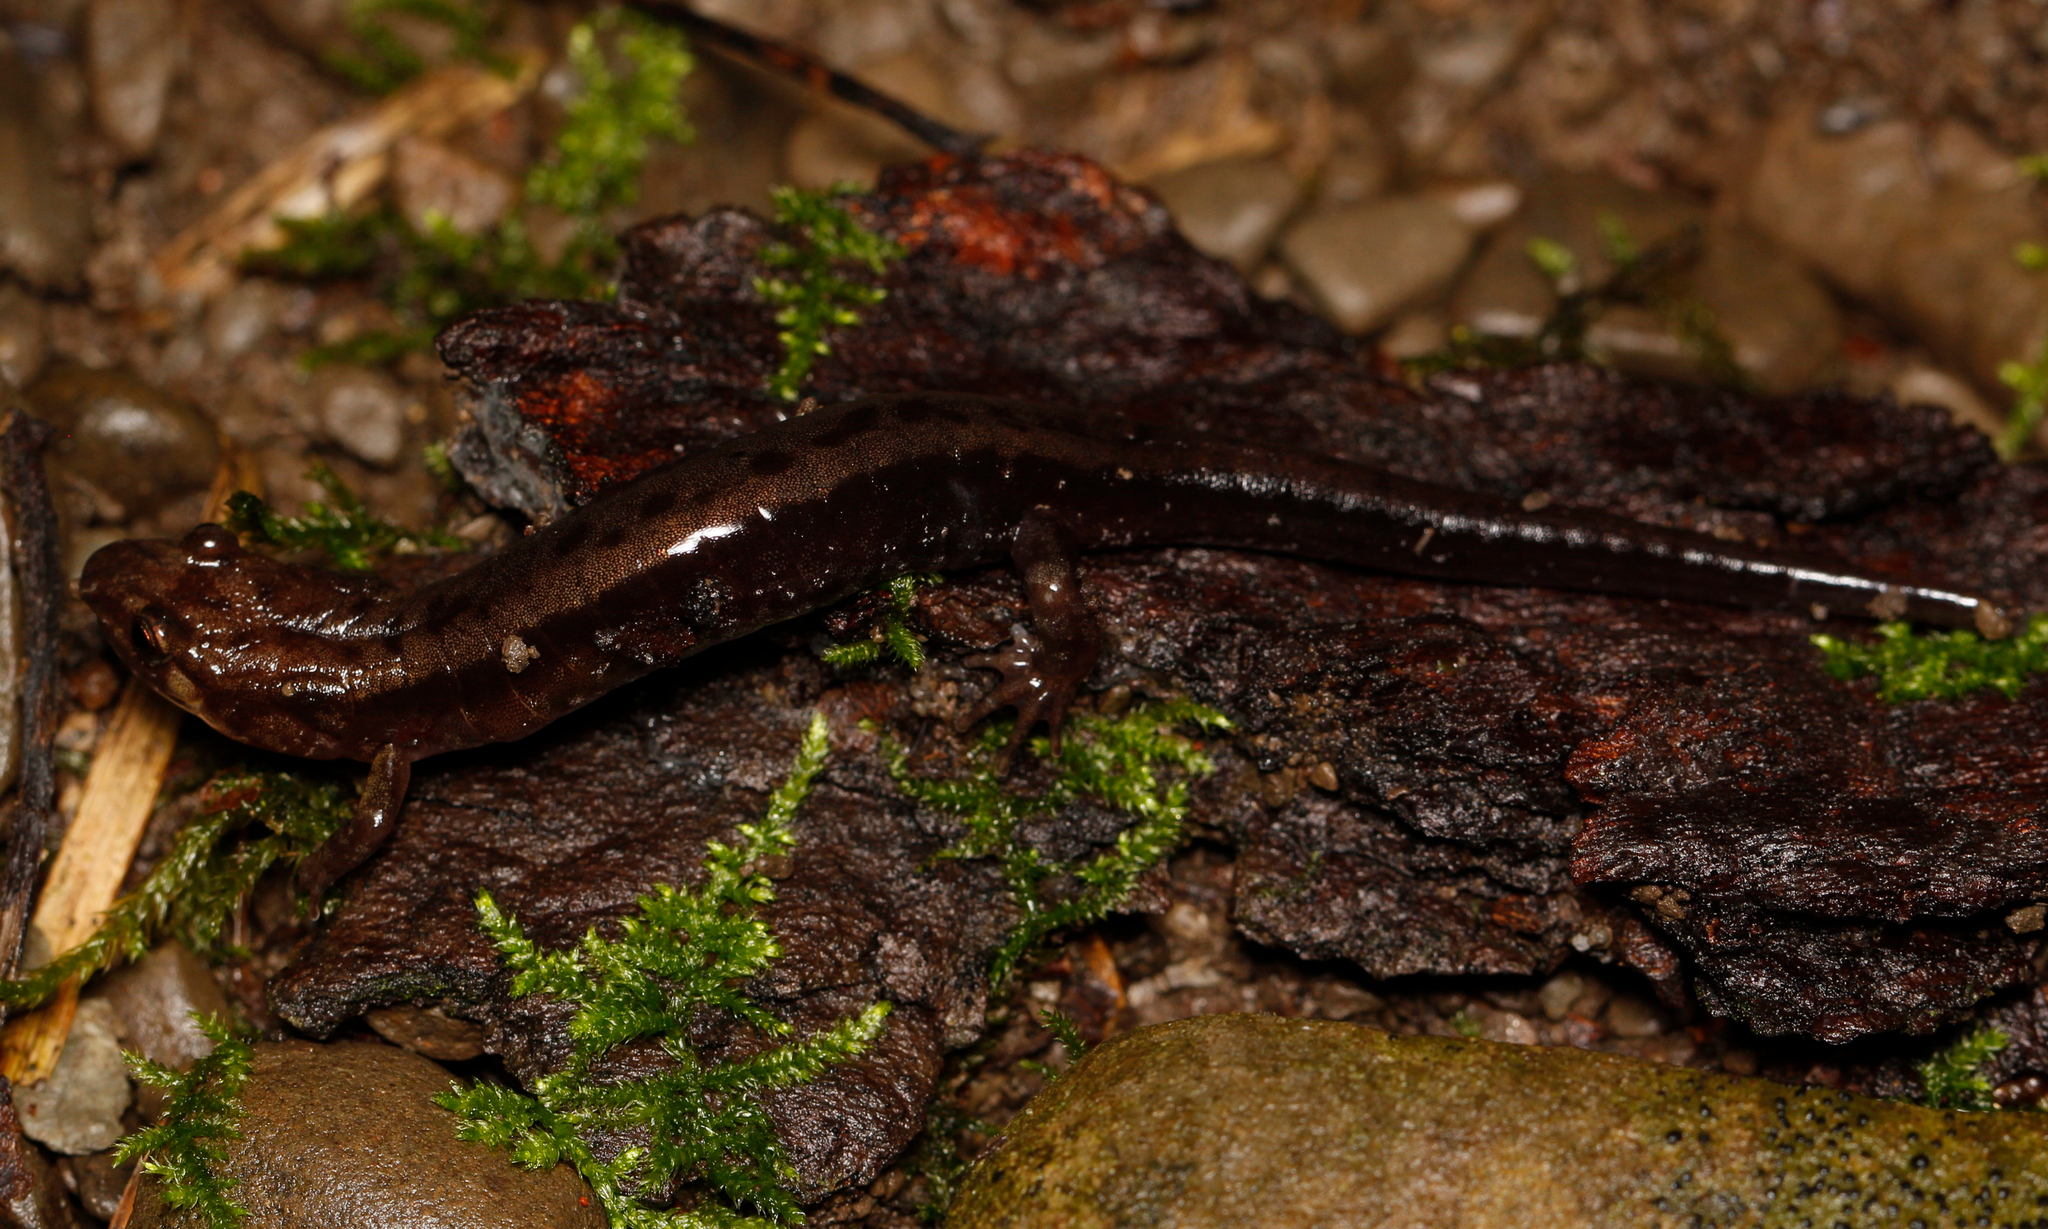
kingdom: Animalia
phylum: Chordata
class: Amphibia
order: Caudata
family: Plethodontidae
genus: Desmognathus
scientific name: Desmognathus ochrophaeus
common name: Allegheny mountain dusky salamander
